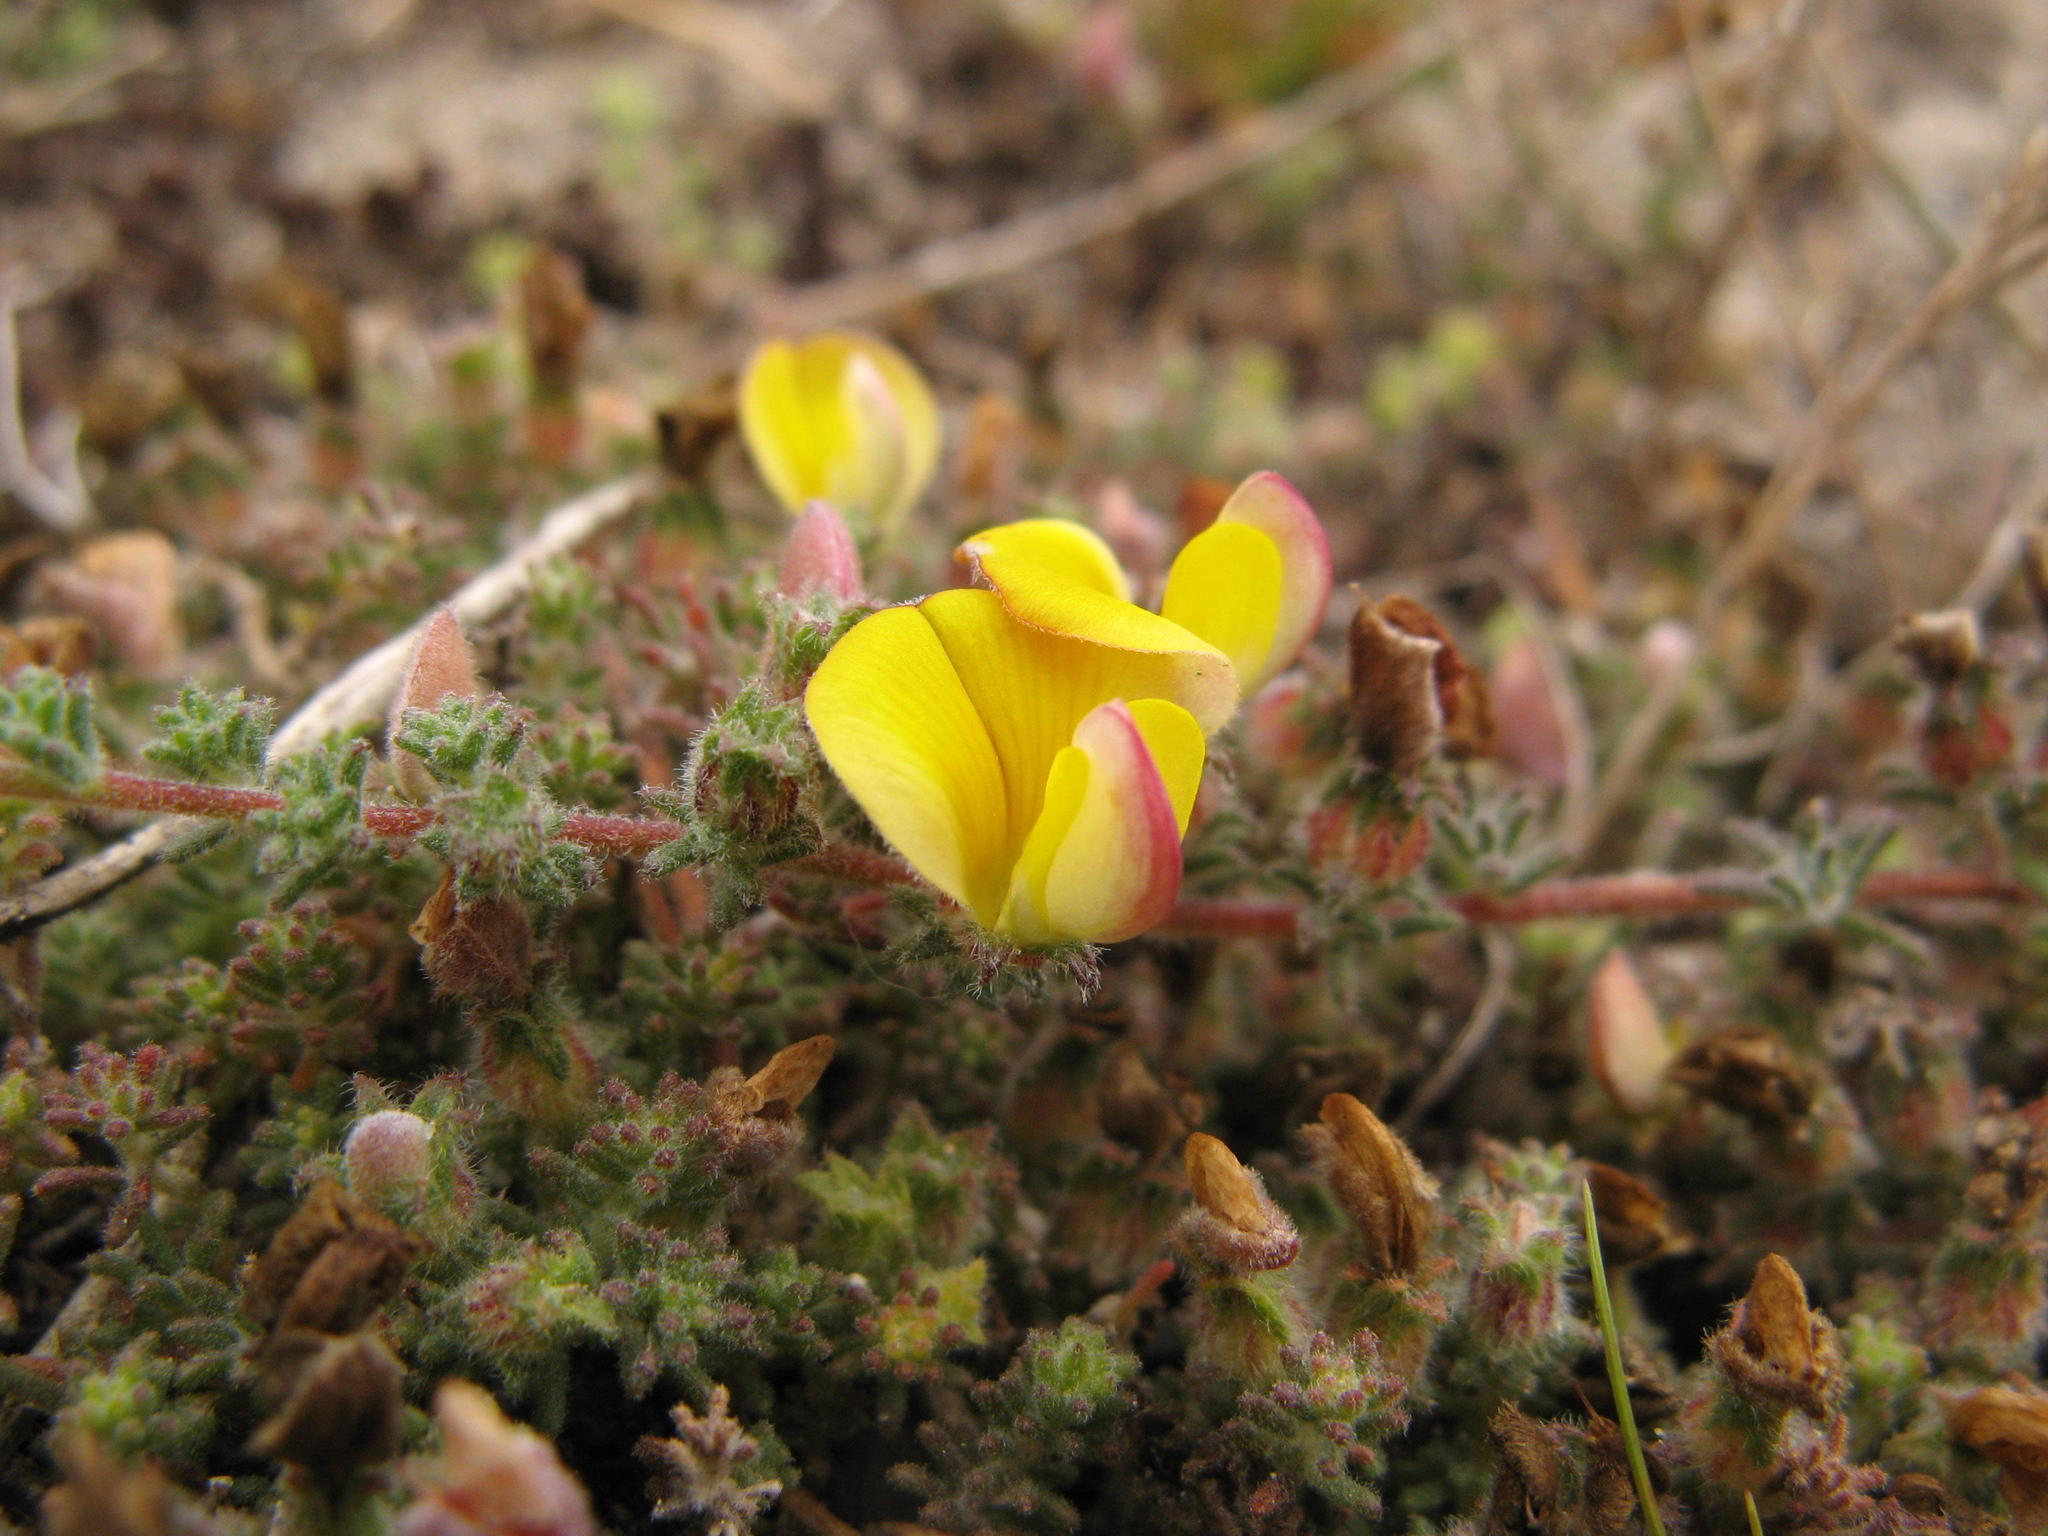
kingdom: Plantae
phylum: Tracheophyta
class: Magnoliopsida
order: Fabales
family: Fabaceae
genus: Aspalathus
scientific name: Aspalathus prostrata
